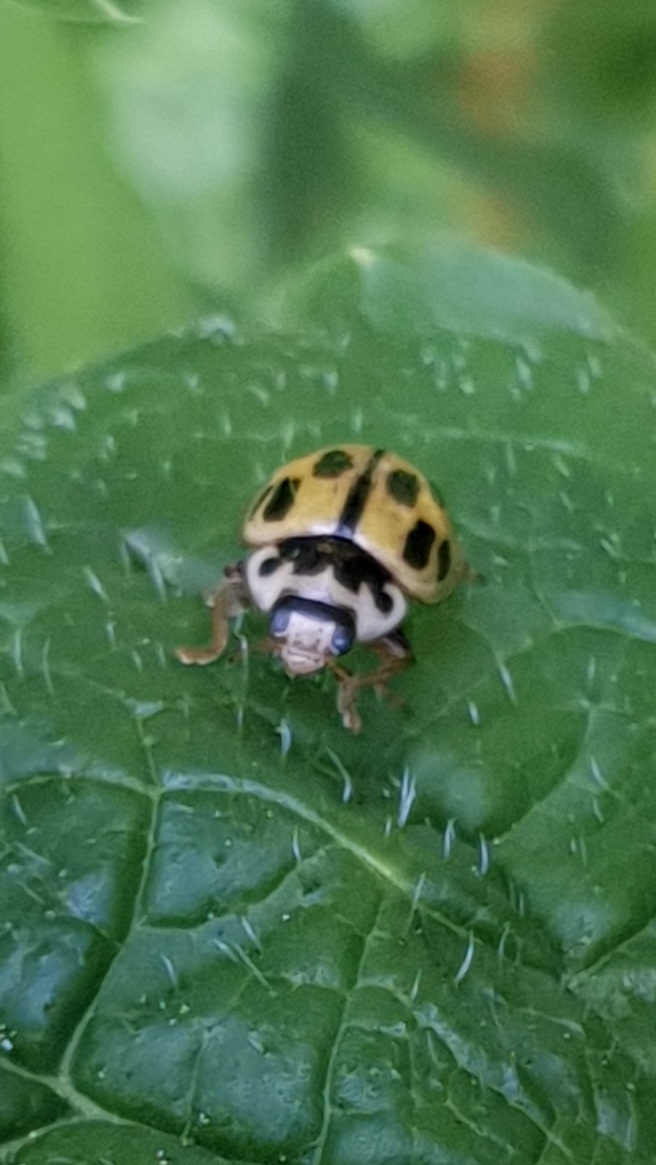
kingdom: Animalia
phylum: Arthropoda
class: Insecta
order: Coleoptera
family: Coccinellidae
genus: Propylaea
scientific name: Propylaea quatuordecimpunctata
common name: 14-spotted ladybird beetle
